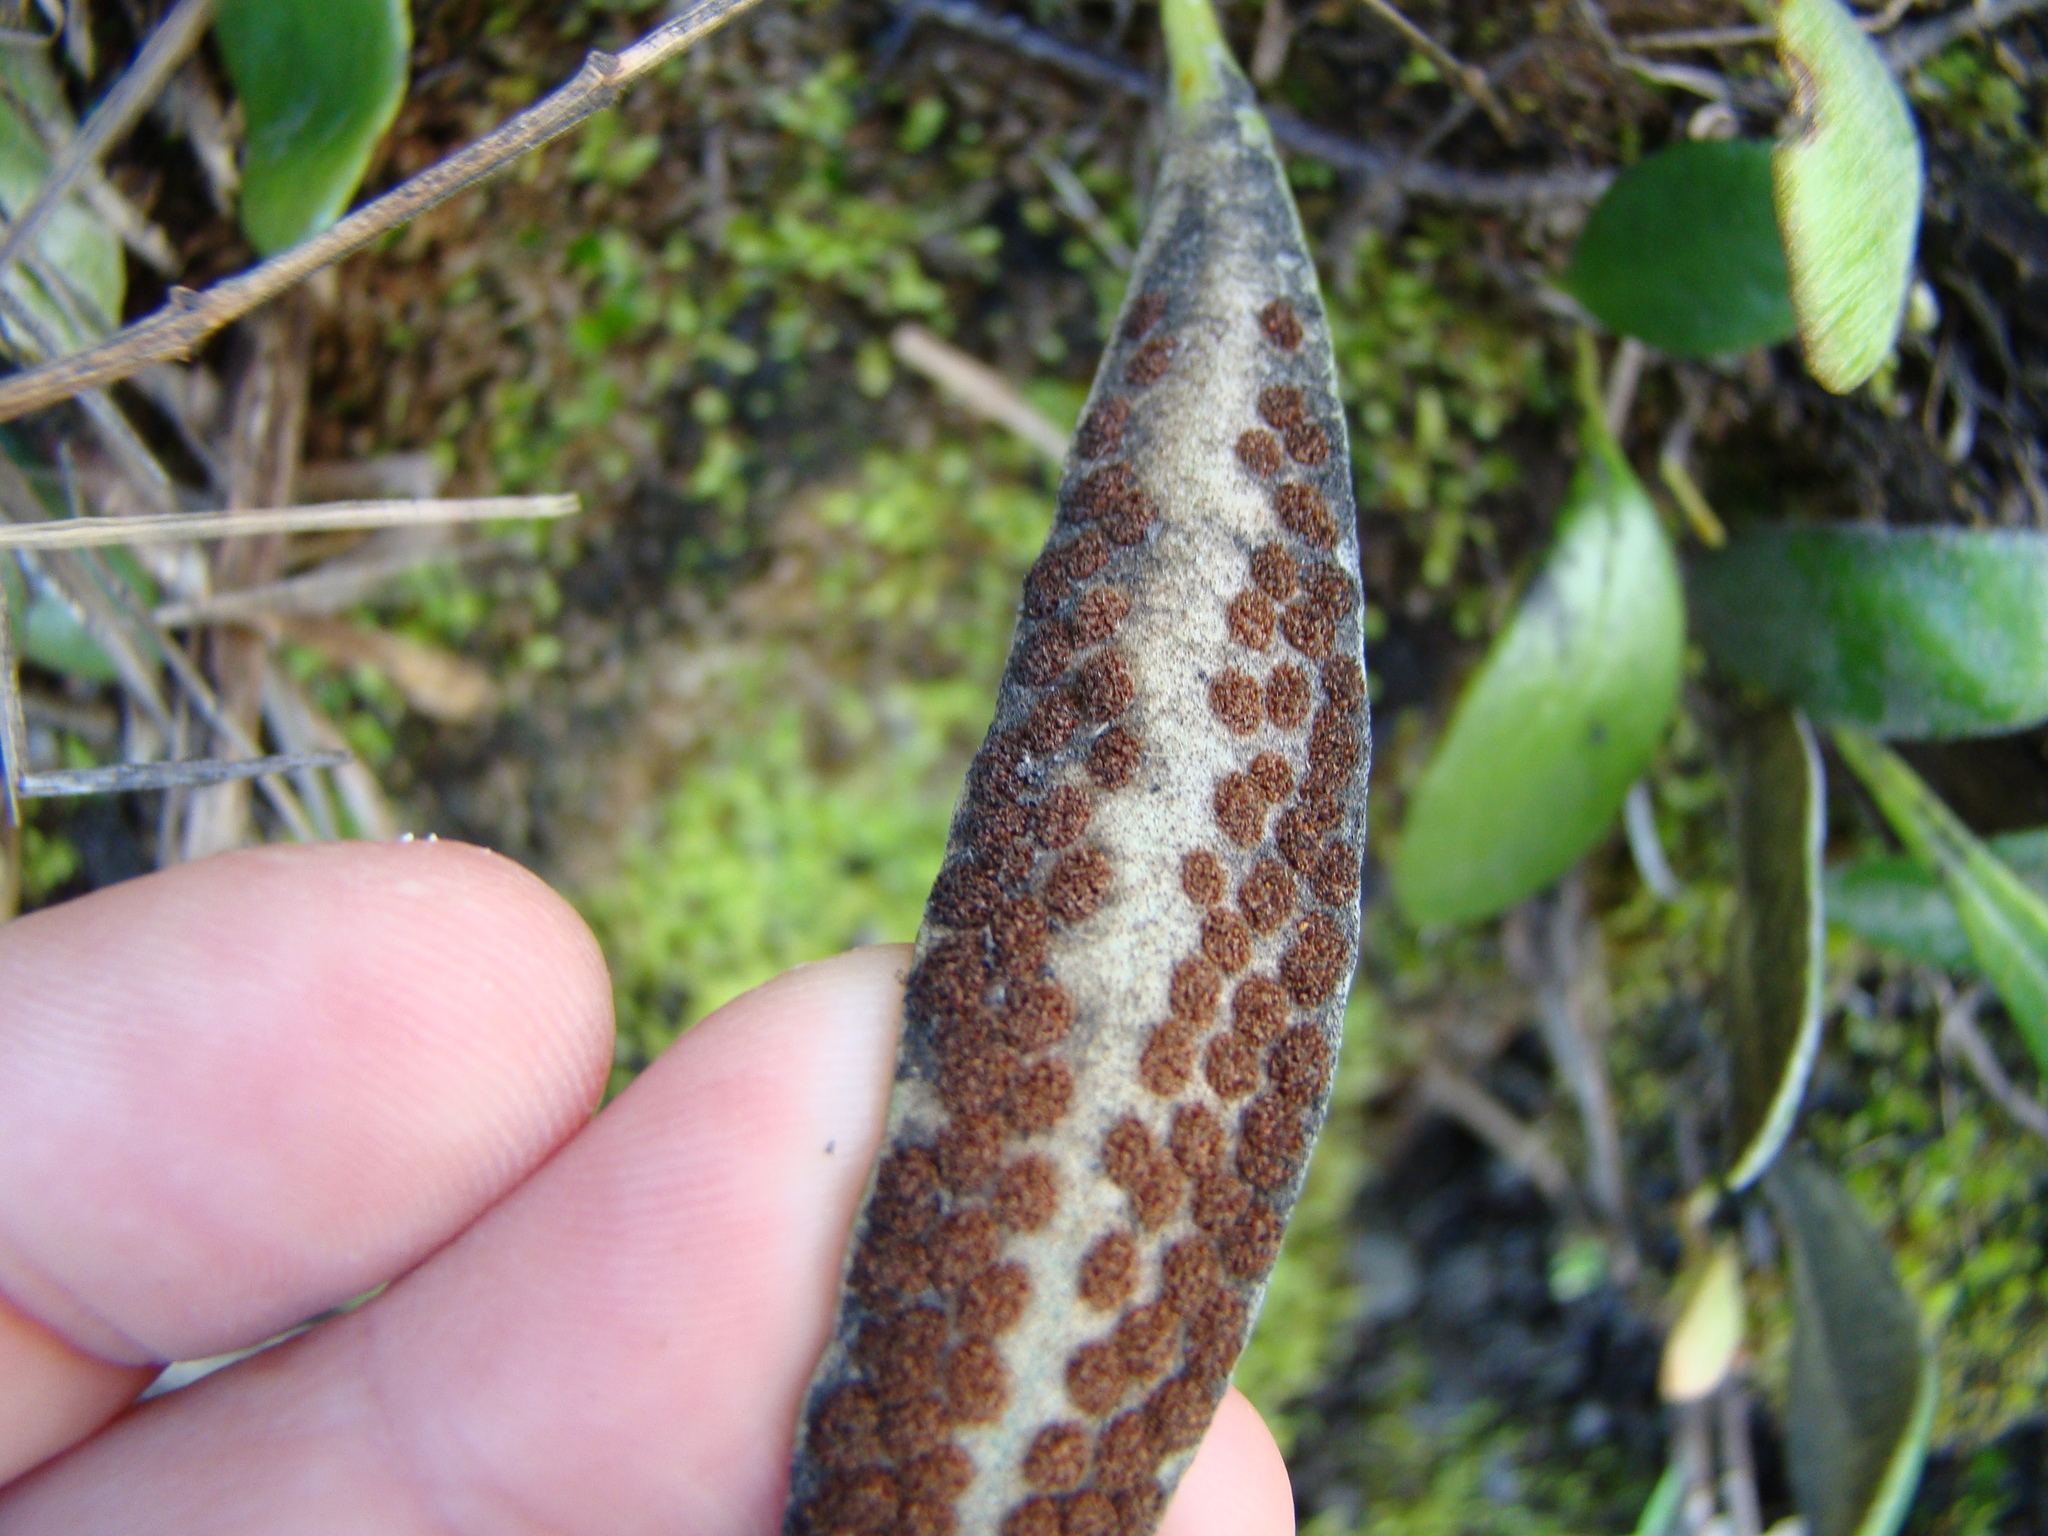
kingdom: Plantae
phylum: Tracheophyta
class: Polypodiopsida
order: Polypodiales
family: Polypodiaceae
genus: Pyrrosia
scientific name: Pyrrosia eleagnifolia
